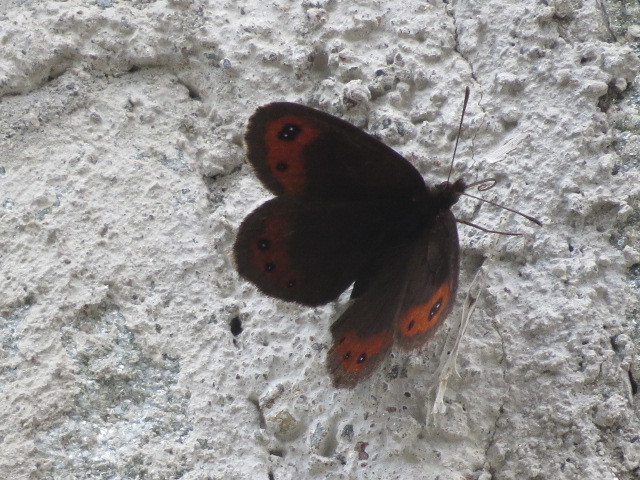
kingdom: Animalia
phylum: Arthropoda
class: Insecta
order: Lepidoptera
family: Nymphalidae
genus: Erebia
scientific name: Erebia montanus
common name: Marbled ringlet
